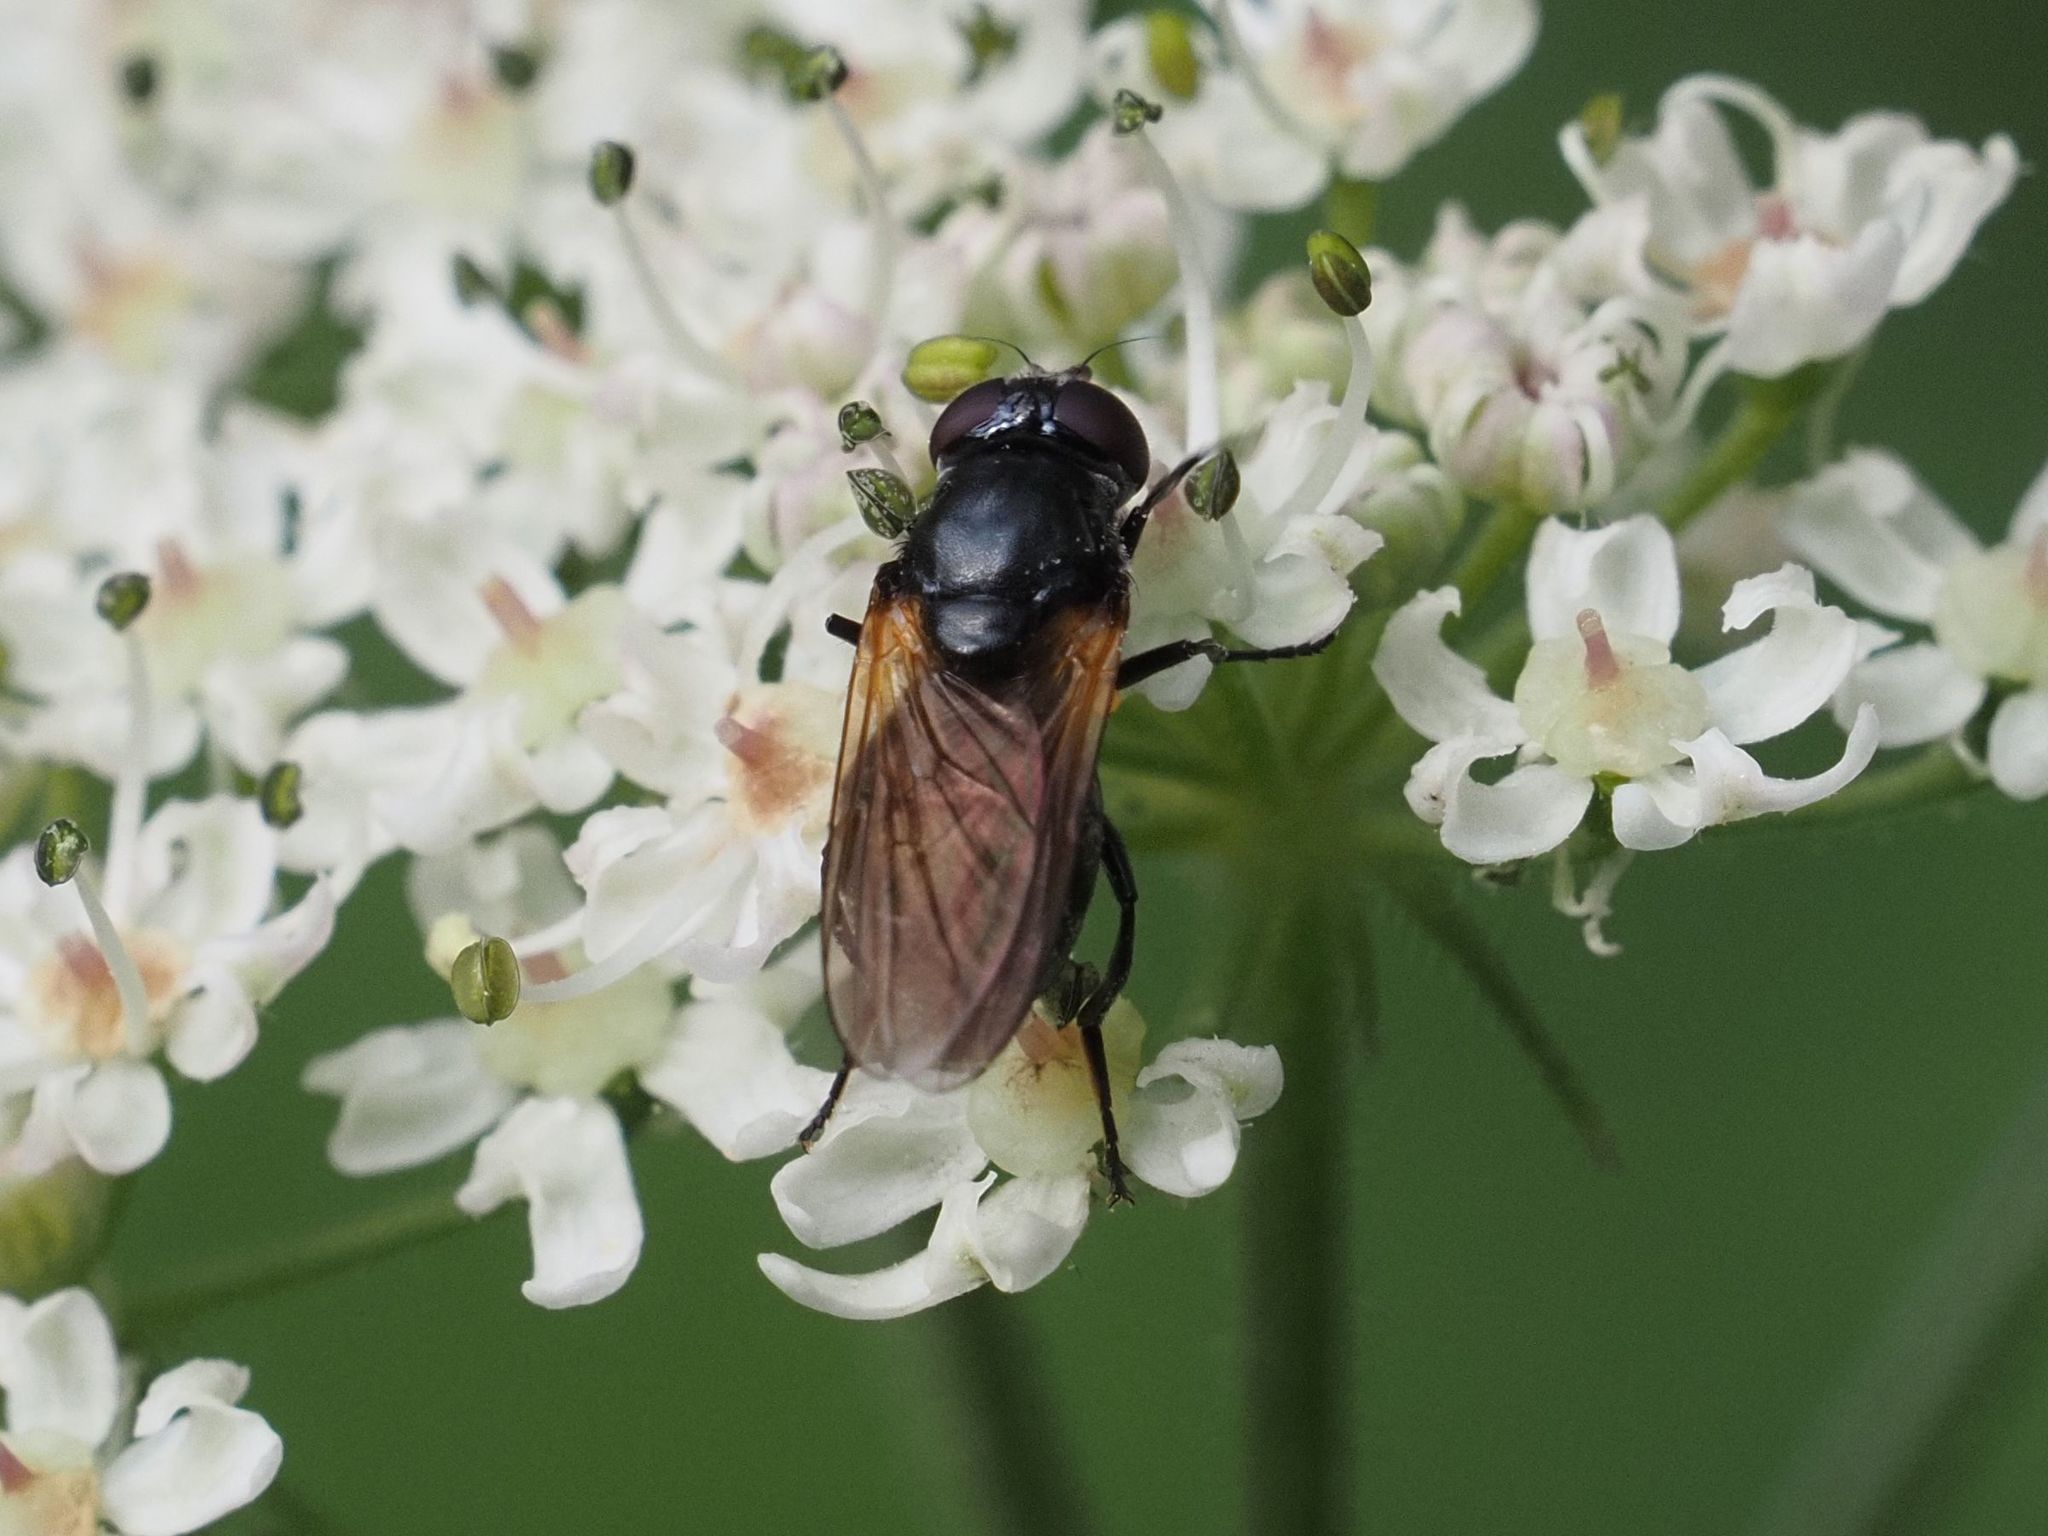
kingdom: Animalia
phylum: Arthropoda
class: Insecta
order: Diptera
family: Syrphidae
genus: Cheilosia
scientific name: Cheilosia impressa
